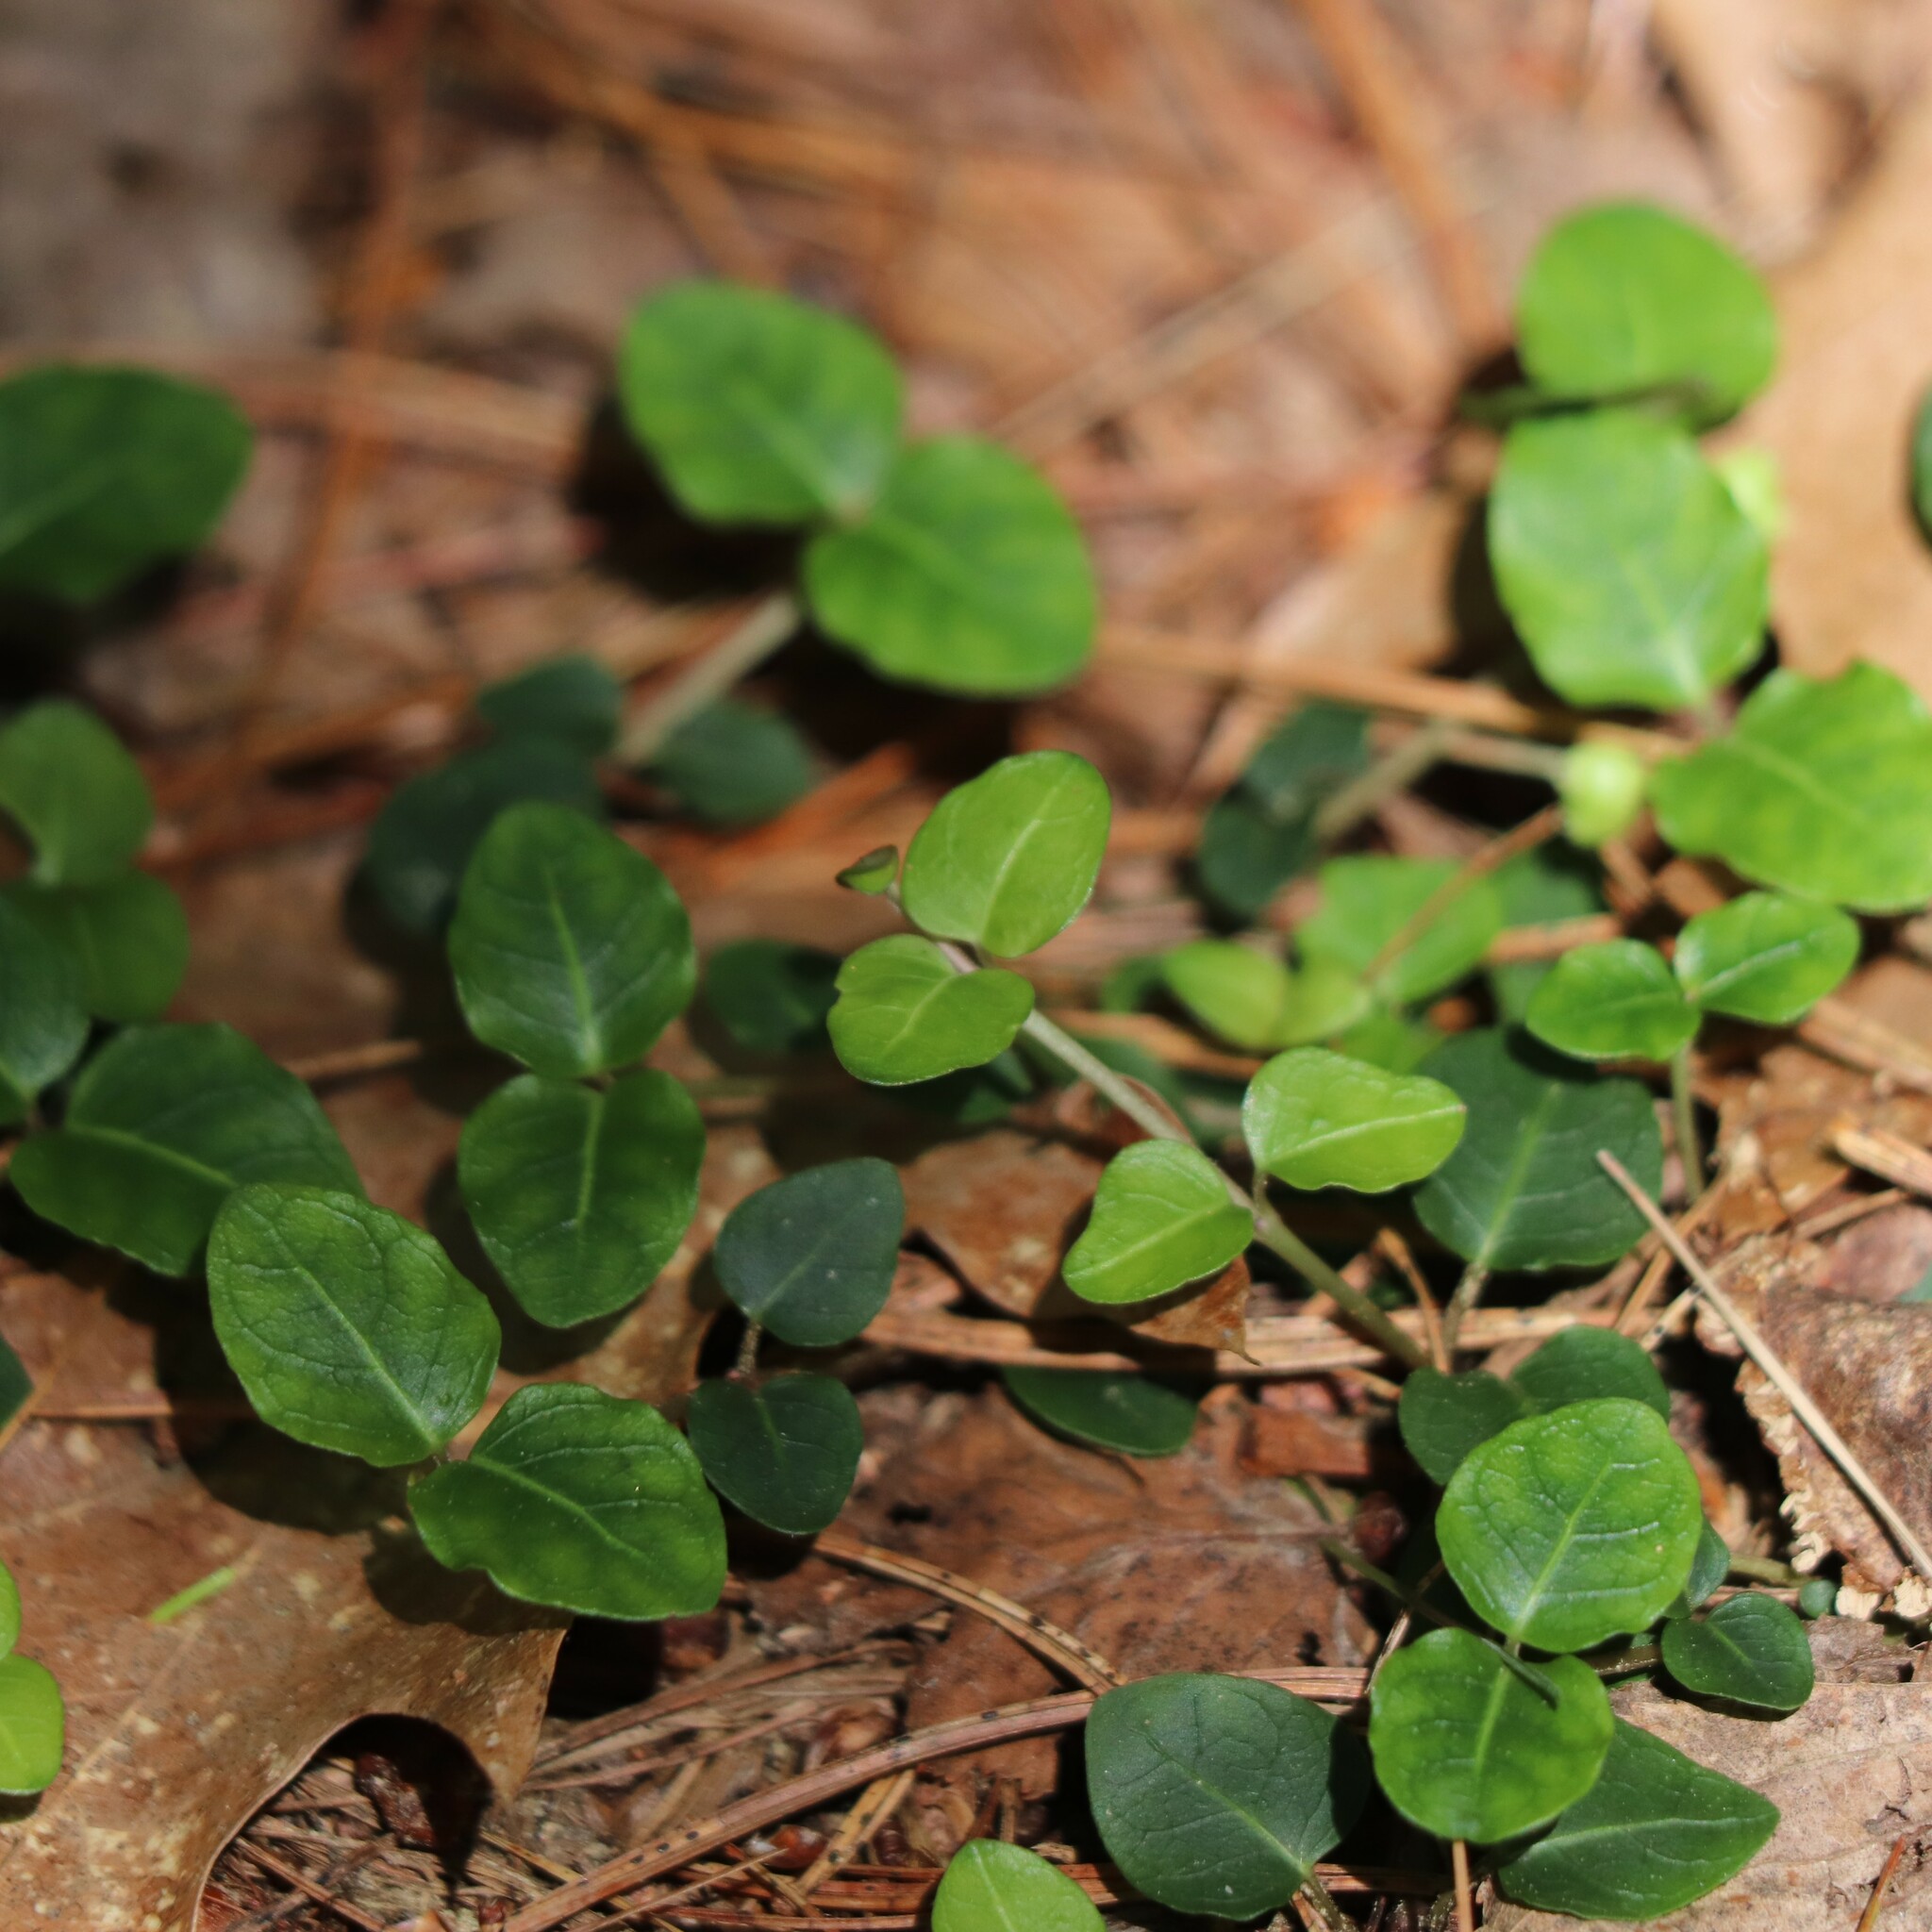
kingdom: Plantae
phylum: Tracheophyta
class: Magnoliopsida
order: Gentianales
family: Rubiaceae
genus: Mitchella
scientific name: Mitchella repens
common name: Partridge-berry
